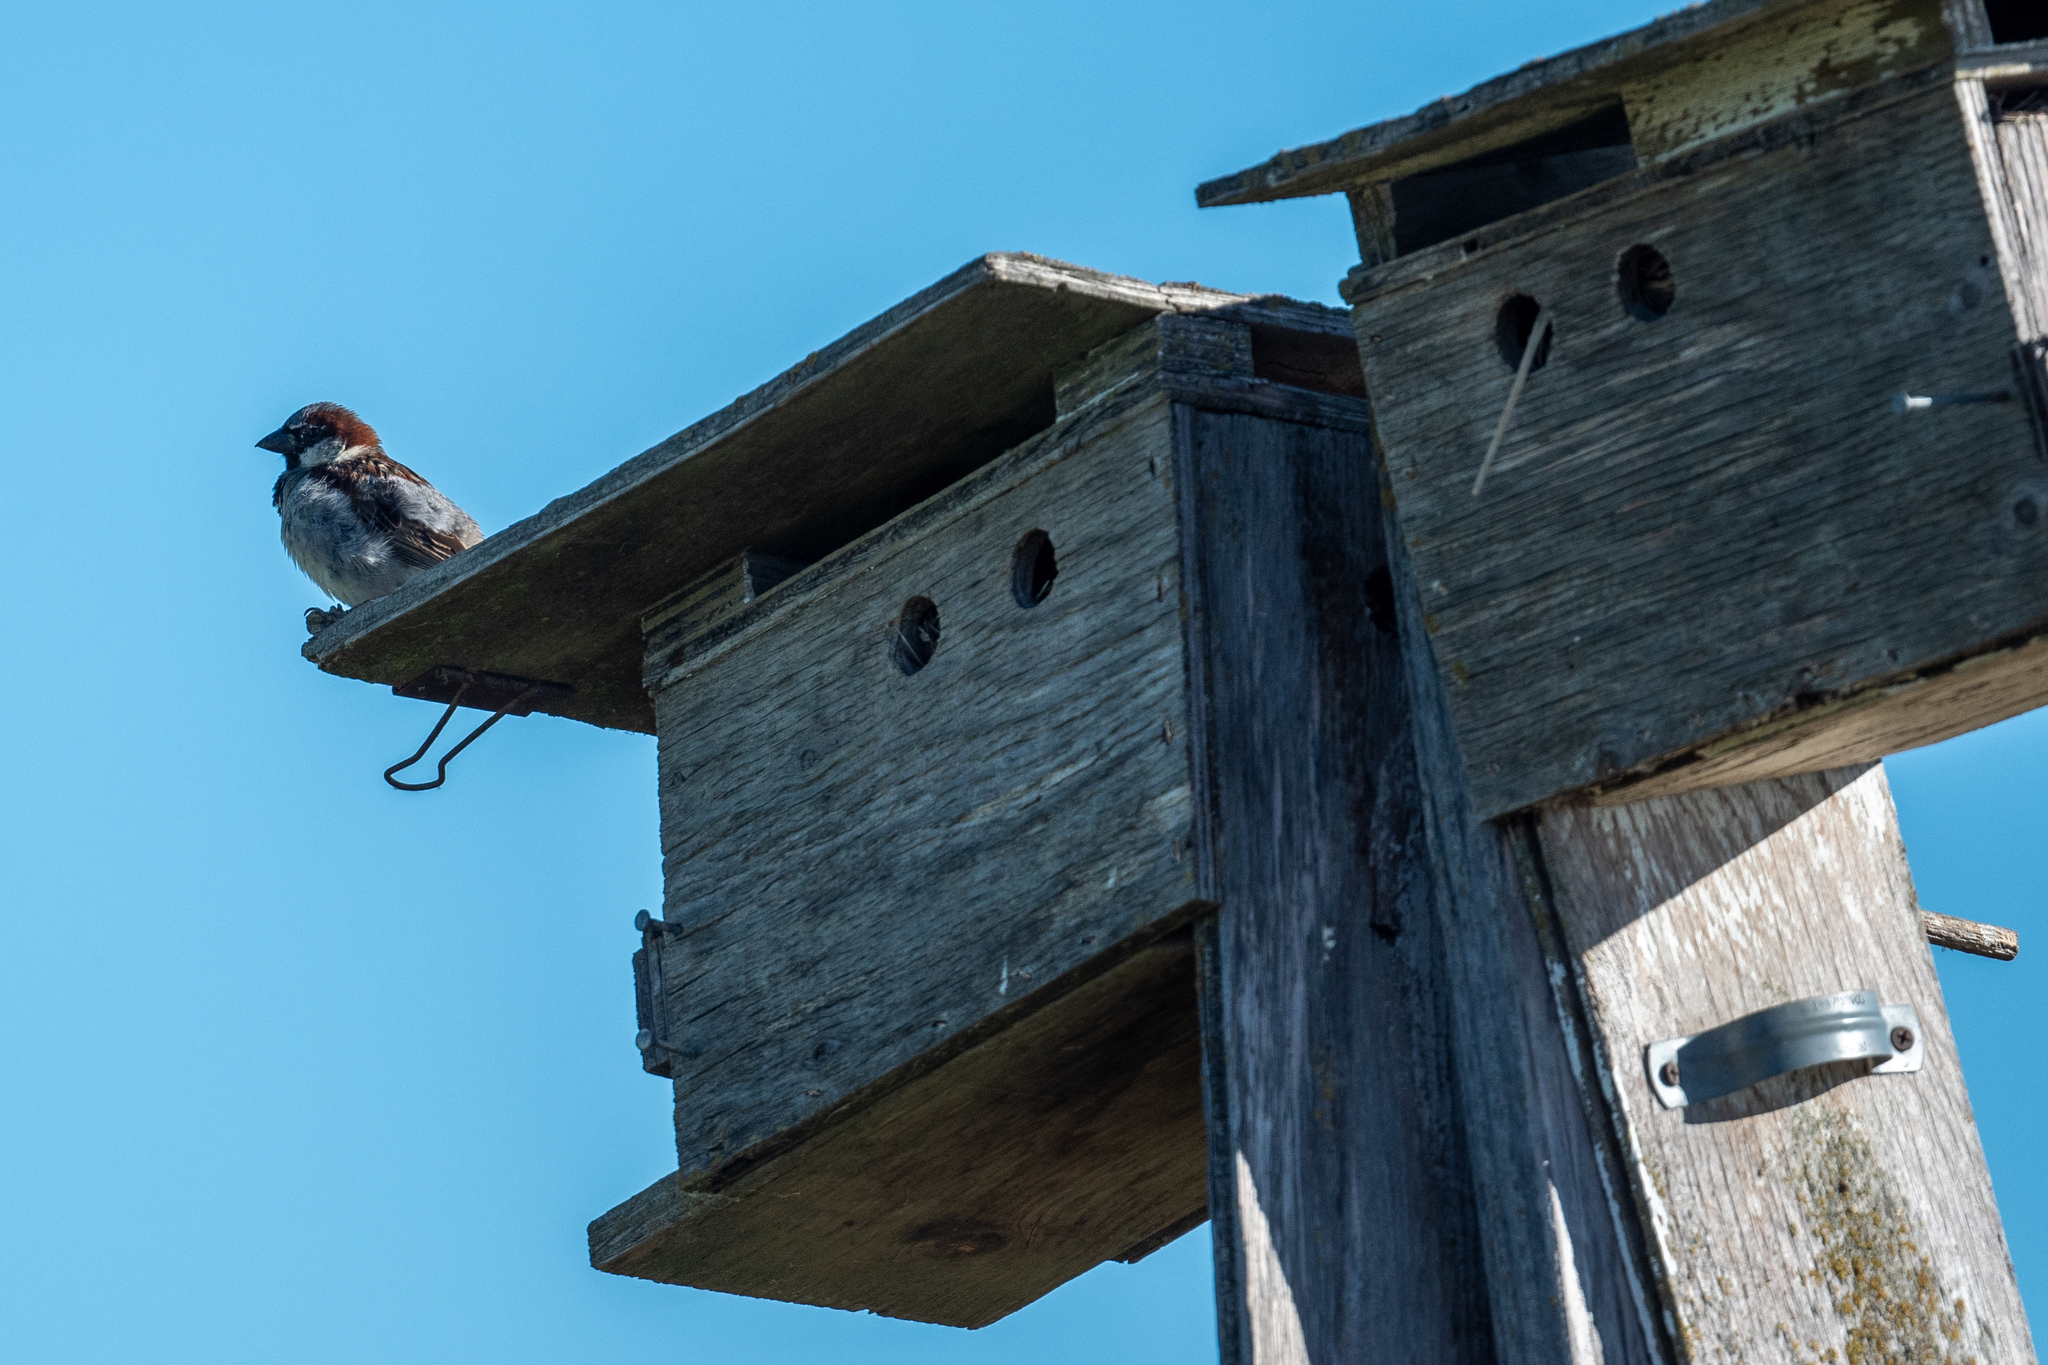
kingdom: Animalia
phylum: Chordata
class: Aves
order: Passeriformes
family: Passeridae
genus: Passer
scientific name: Passer domesticus
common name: House sparrow
